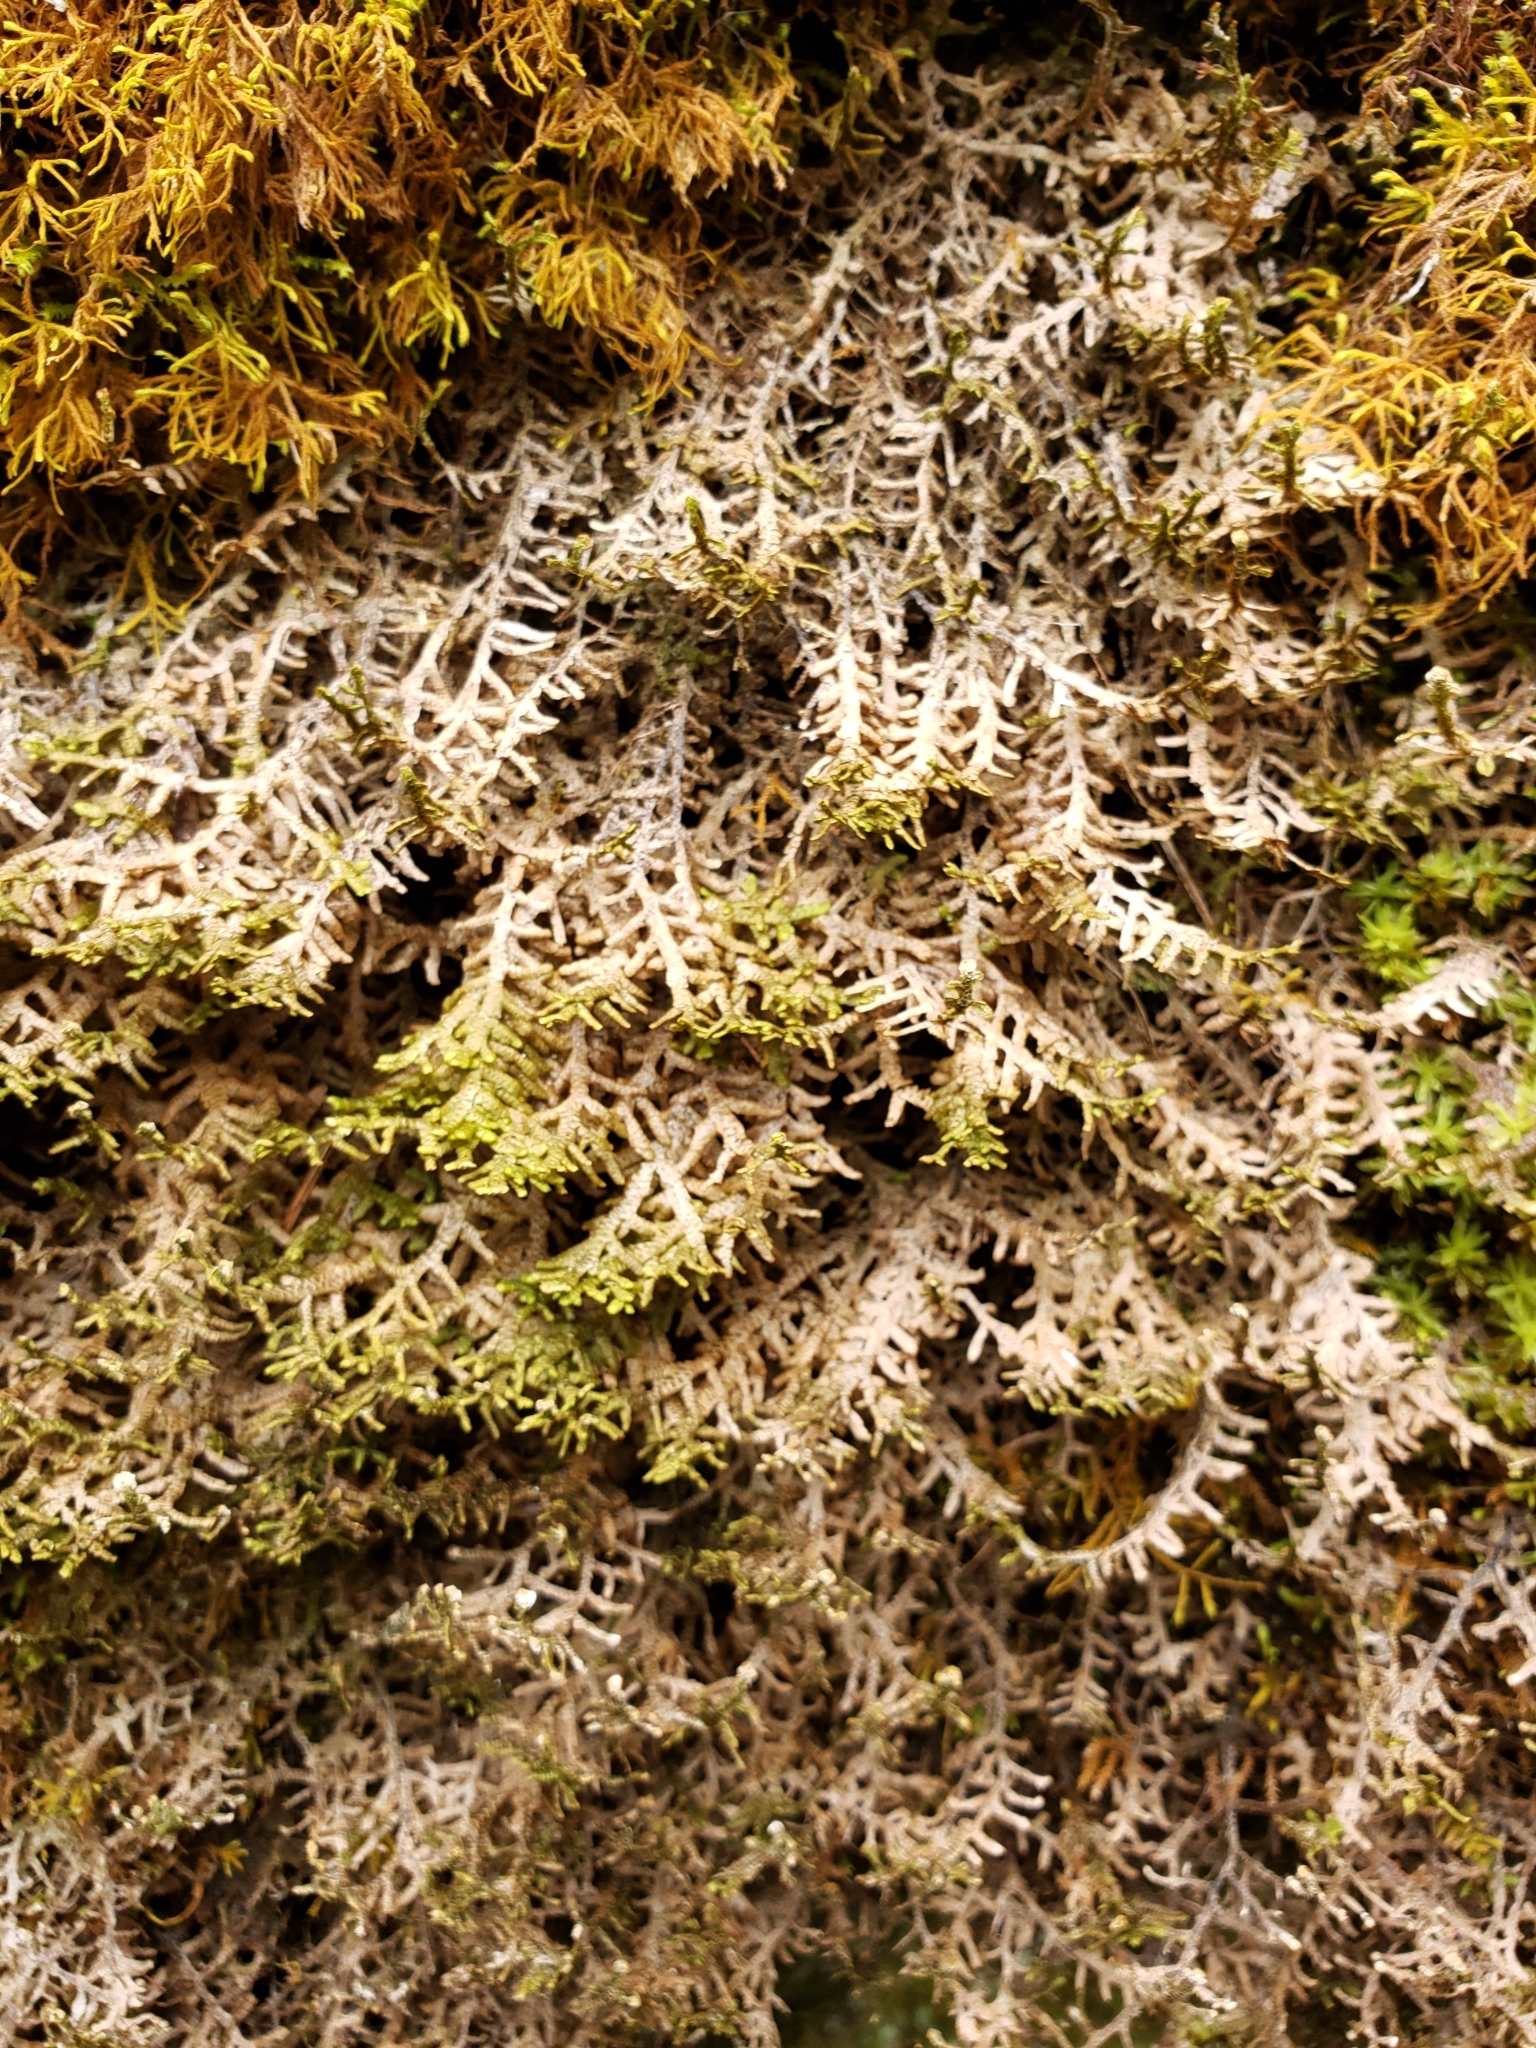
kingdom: Plantae
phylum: Marchantiophyta
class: Jungermanniopsida
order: Porellales
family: Porellaceae
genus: Porella
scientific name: Porella platyphylla
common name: Wall scalewort
